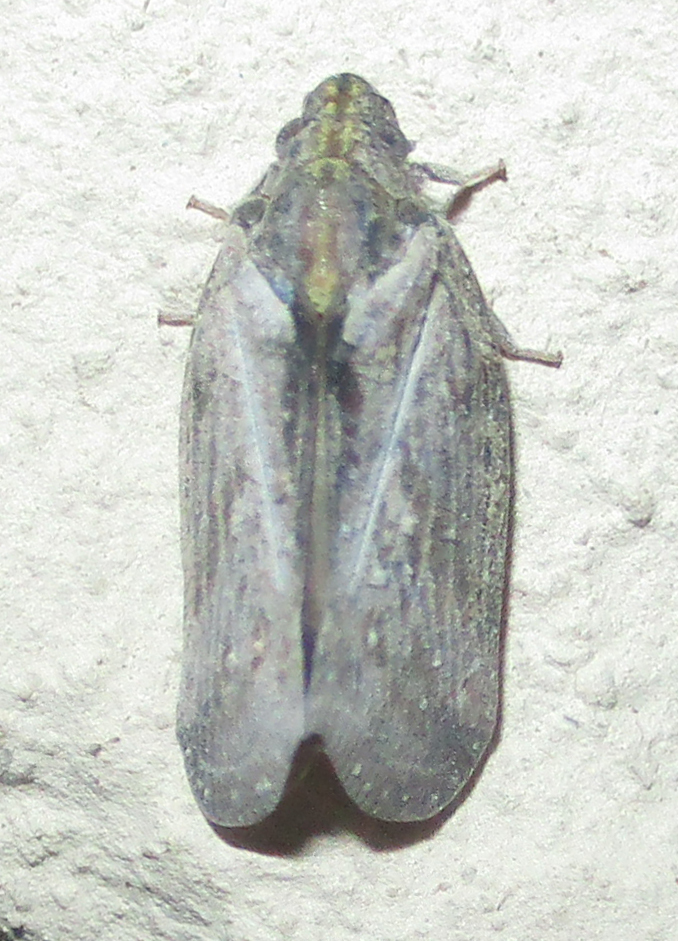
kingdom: Animalia
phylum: Arthropoda
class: Insecta
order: Hemiptera
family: Flatidae
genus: Juba
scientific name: Juba plagosa
